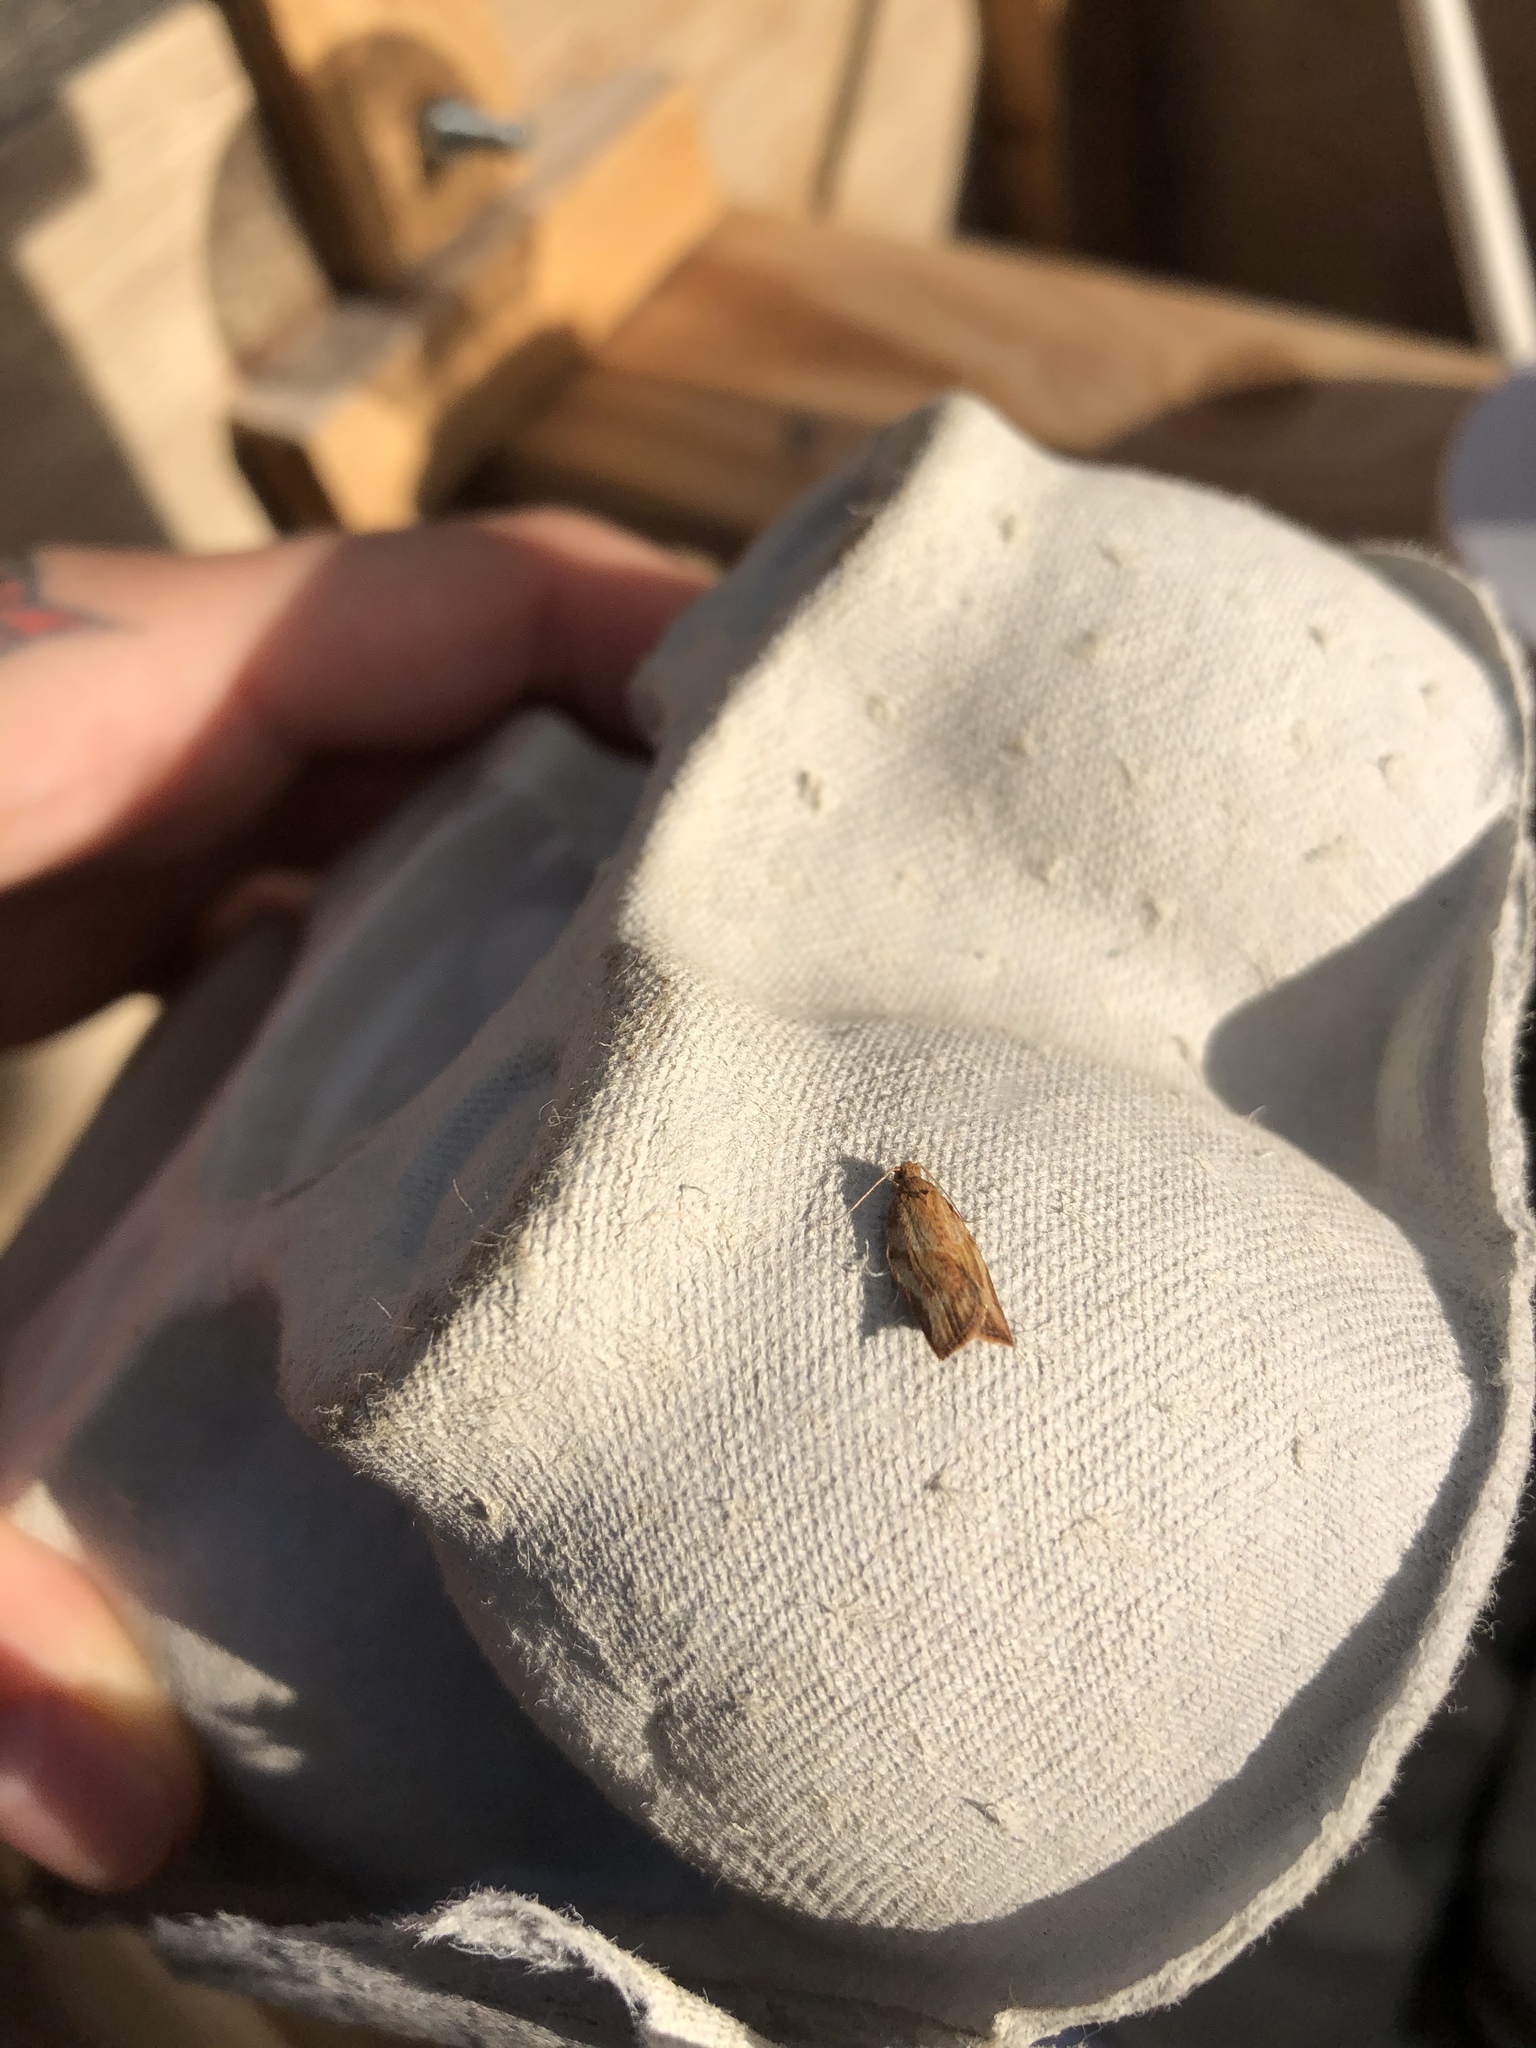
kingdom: Animalia
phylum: Arthropoda
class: Insecta
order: Lepidoptera
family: Tortricidae
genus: Epiphyas
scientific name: Epiphyas postvittana
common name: Light brown apple moth
